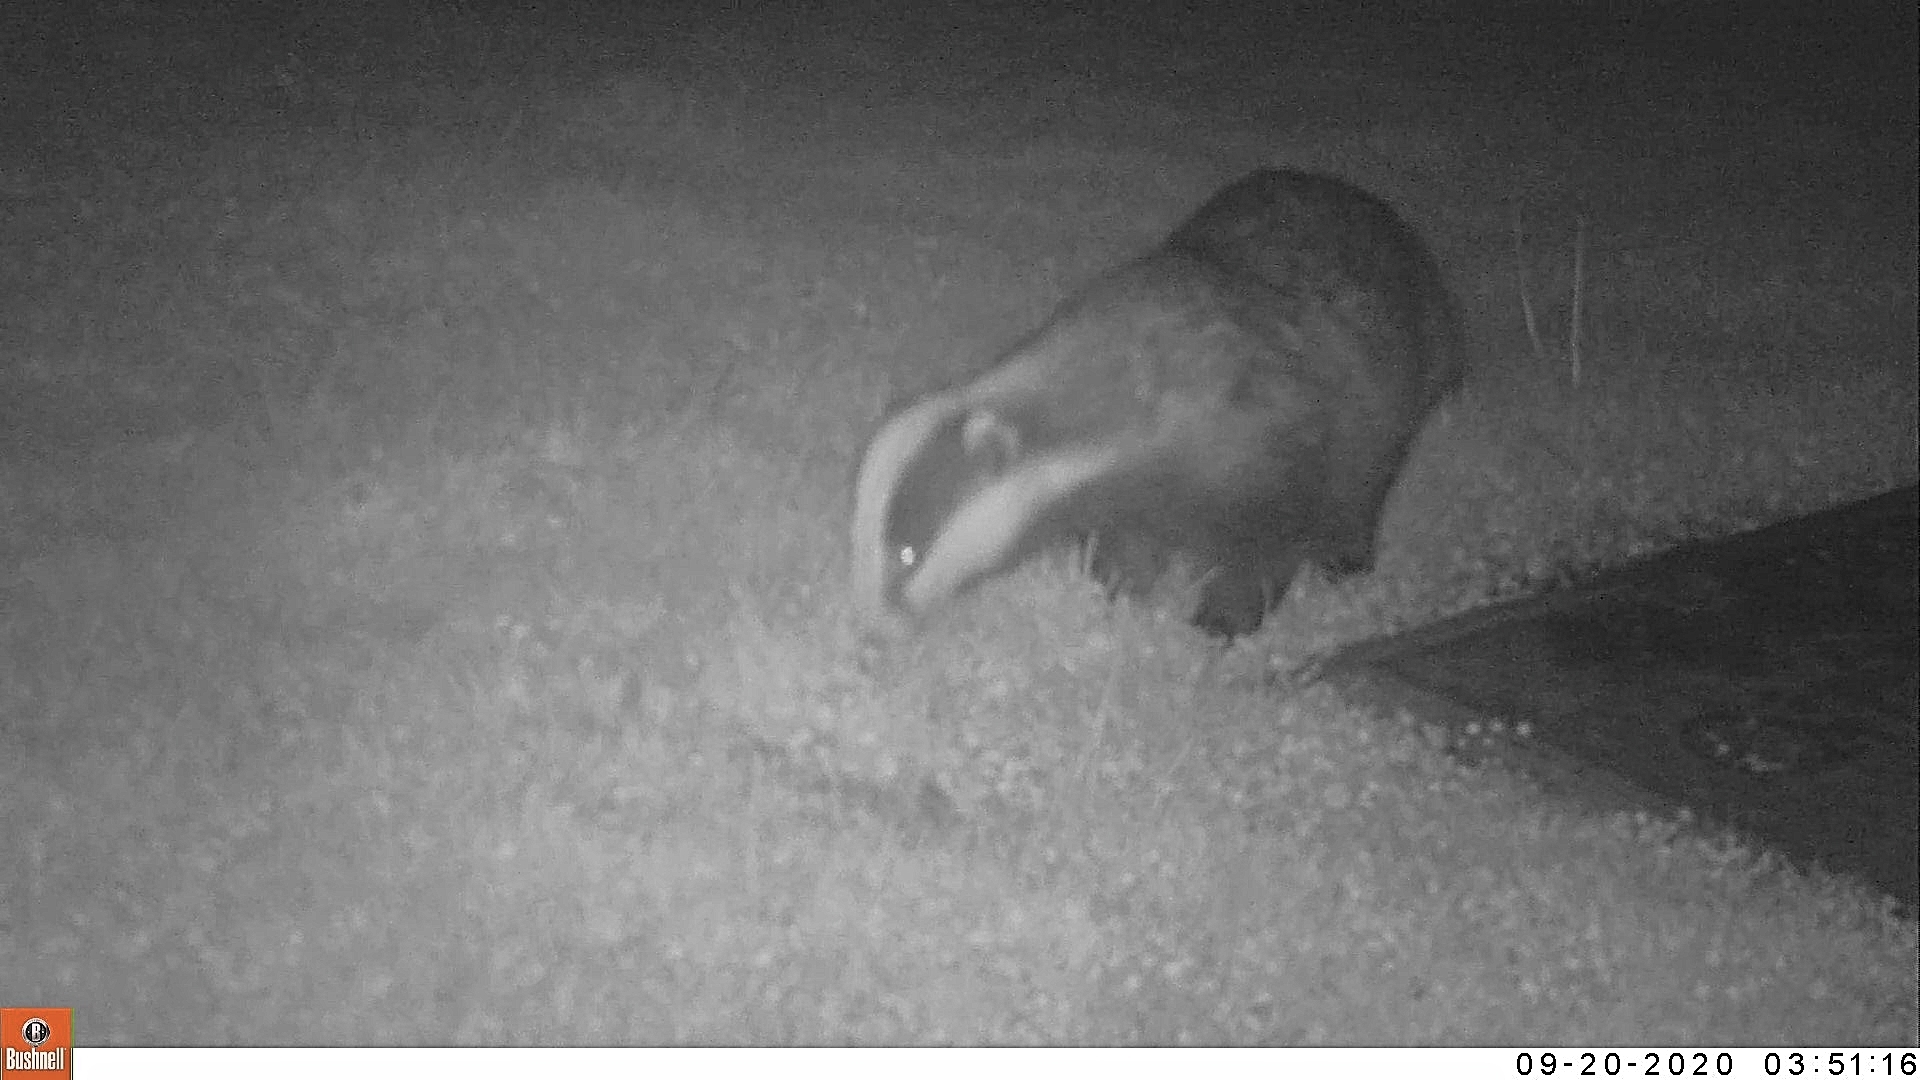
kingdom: Animalia
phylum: Chordata
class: Mammalia
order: Carnivora
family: Mustelidae
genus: Meles
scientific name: Meles meles
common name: Eurasian badger
